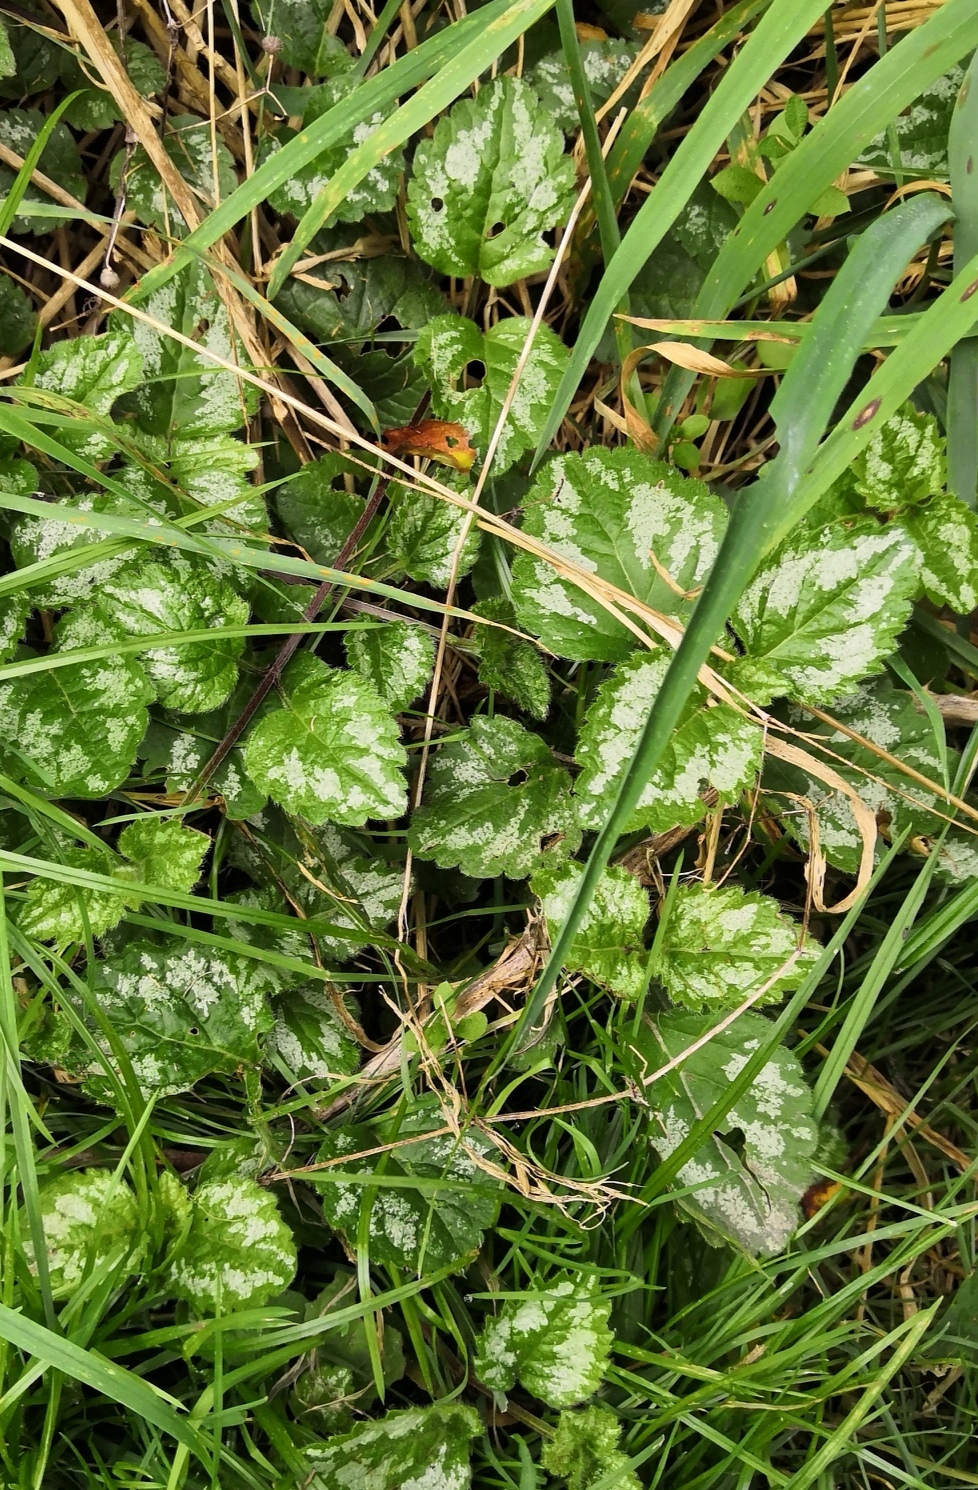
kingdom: Plantae
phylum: Tracheophyta
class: Magnoliopsida
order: Lamiales
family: Lamiaceae
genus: Lamium
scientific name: Lamium galeobdolon
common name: Yellow archangel
